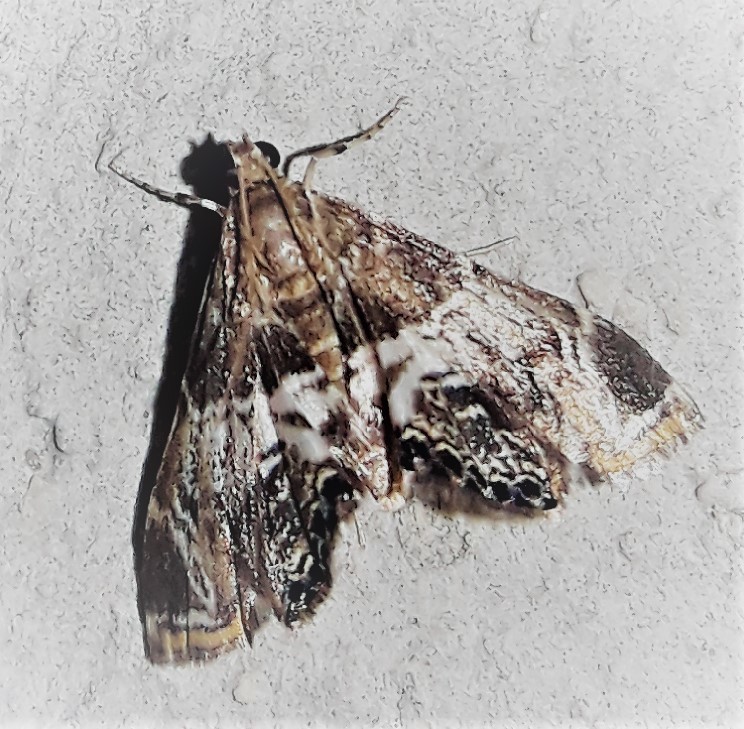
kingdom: Animalia
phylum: Arthropoda
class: Insecta
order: Lepidoptera
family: Crambidae
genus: Usingeriessa
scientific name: Usingeriessa onyxalis
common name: Moth
